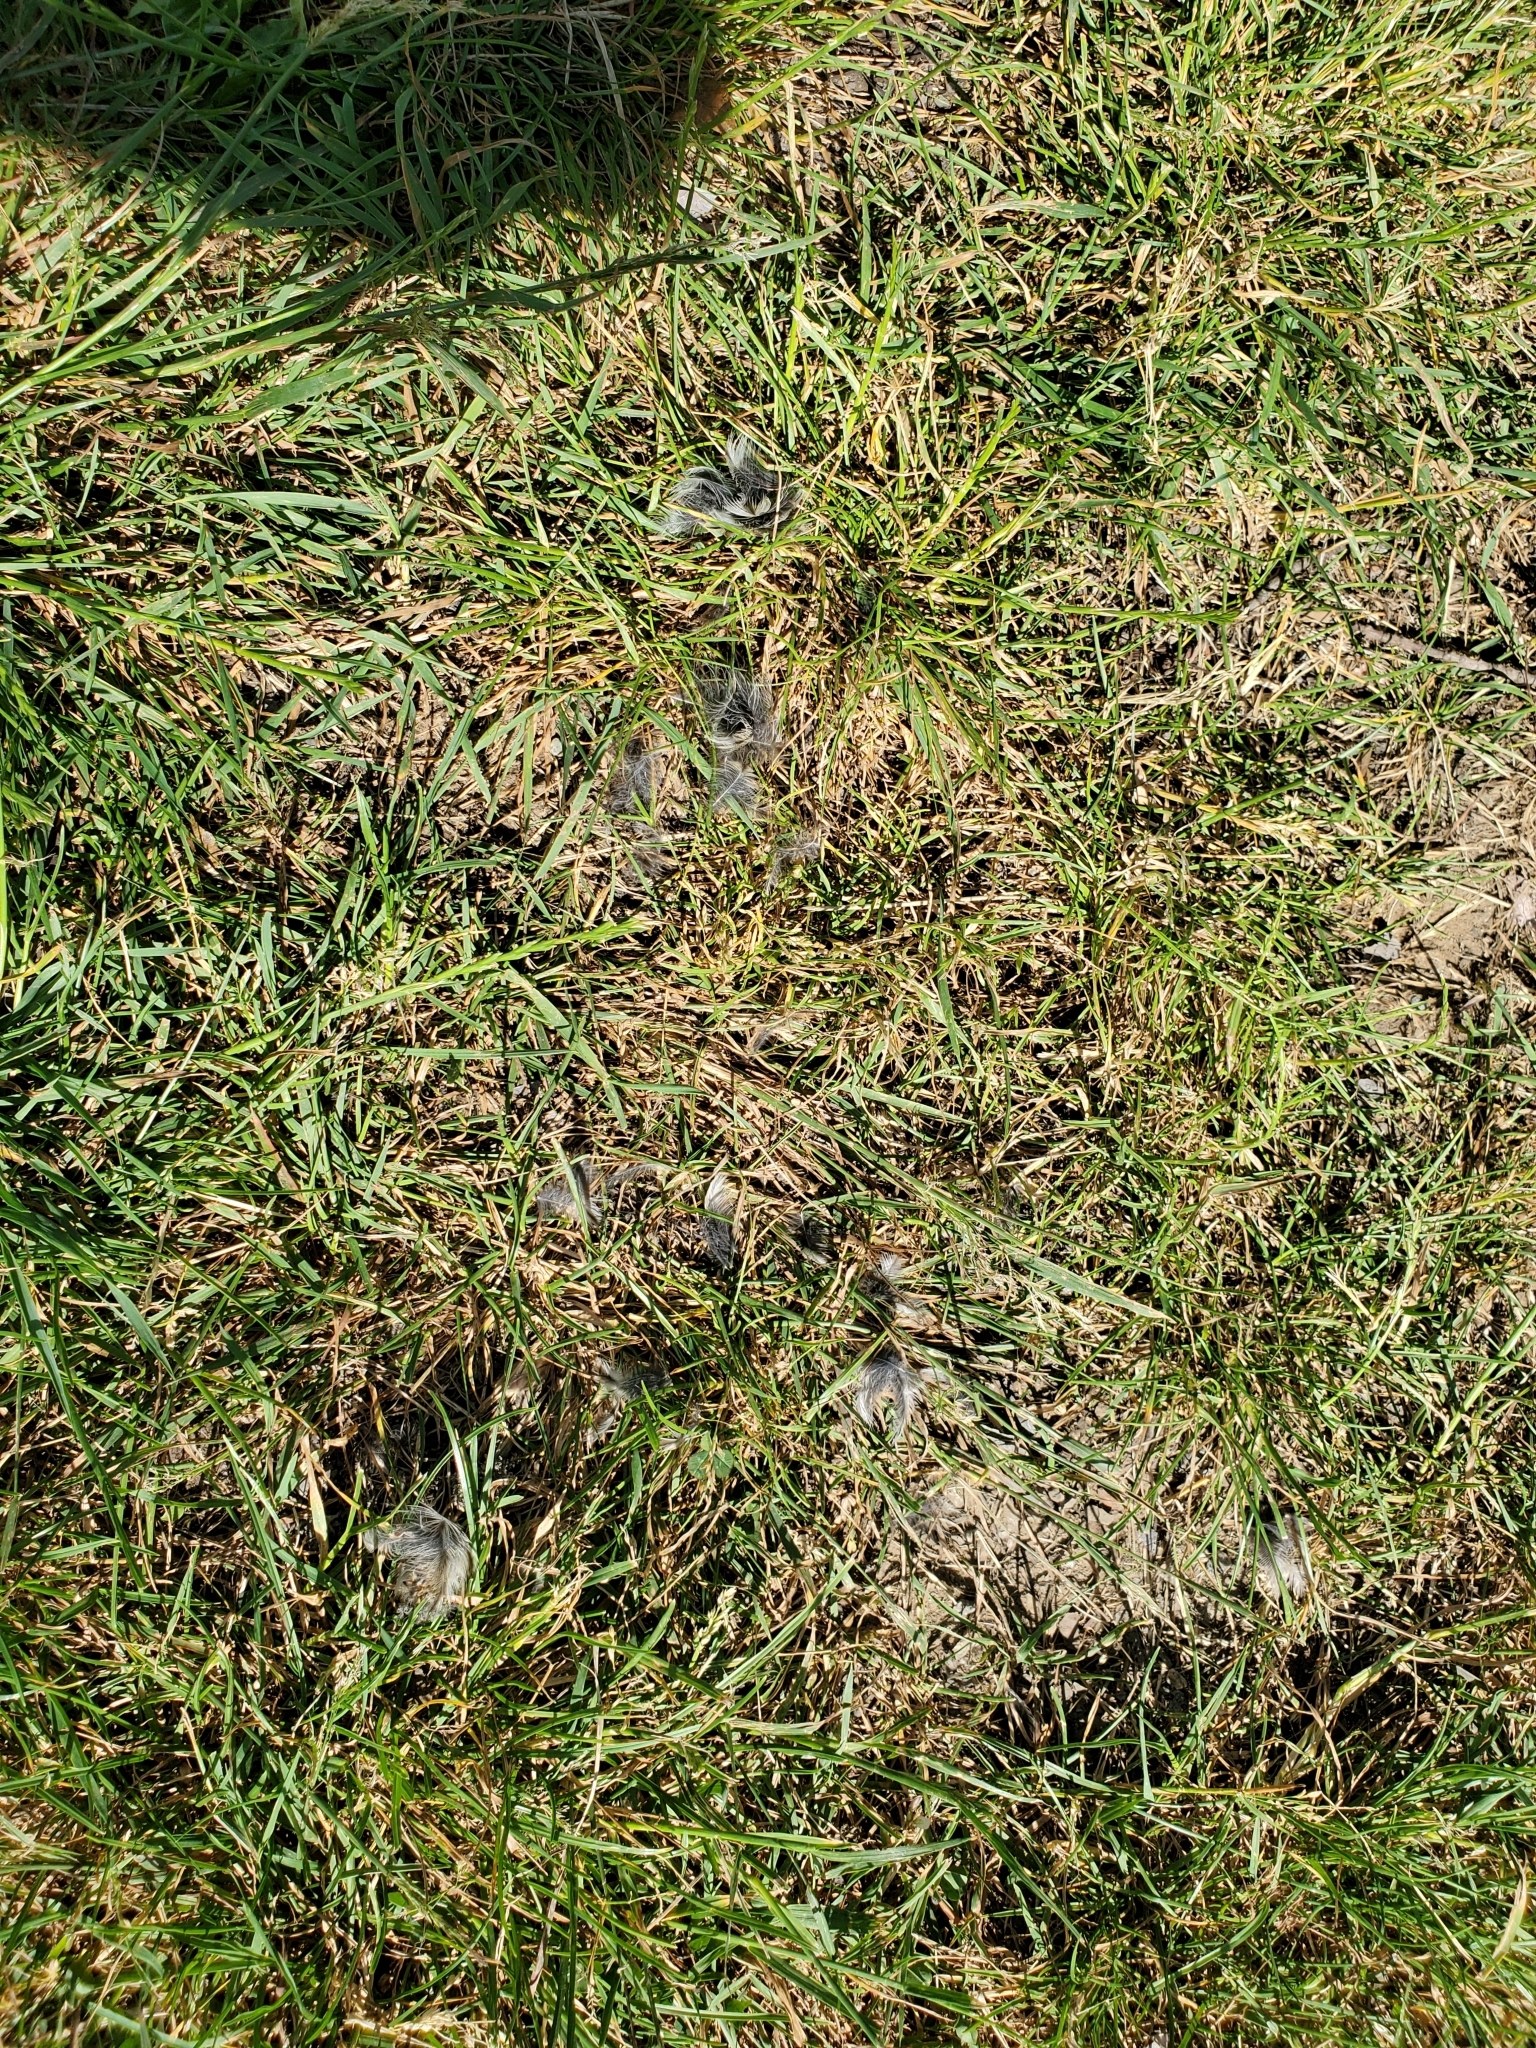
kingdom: Animalia
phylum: Chordata
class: Aves
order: Passeriformes
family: Fringillidae
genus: Spinus
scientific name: Spinus pinus
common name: Pine siskin
